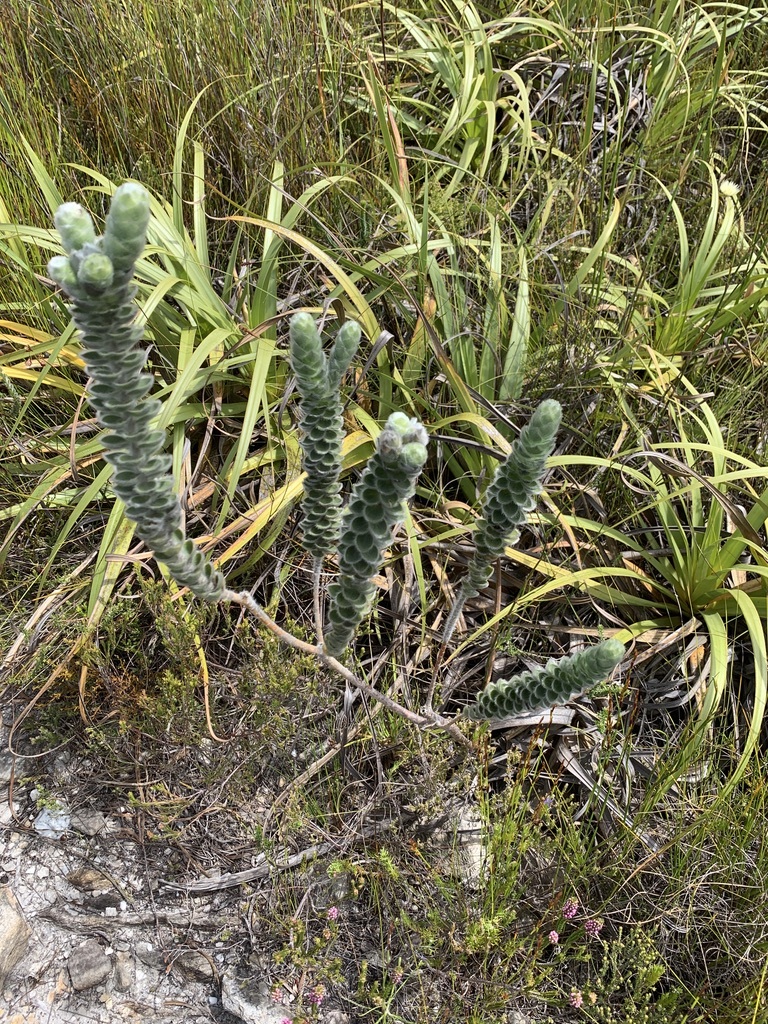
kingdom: Plantae
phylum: Tracheophyta
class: Magnoliopsida
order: Fabales
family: Fabaceae
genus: Liparia
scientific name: Liparia vestita
